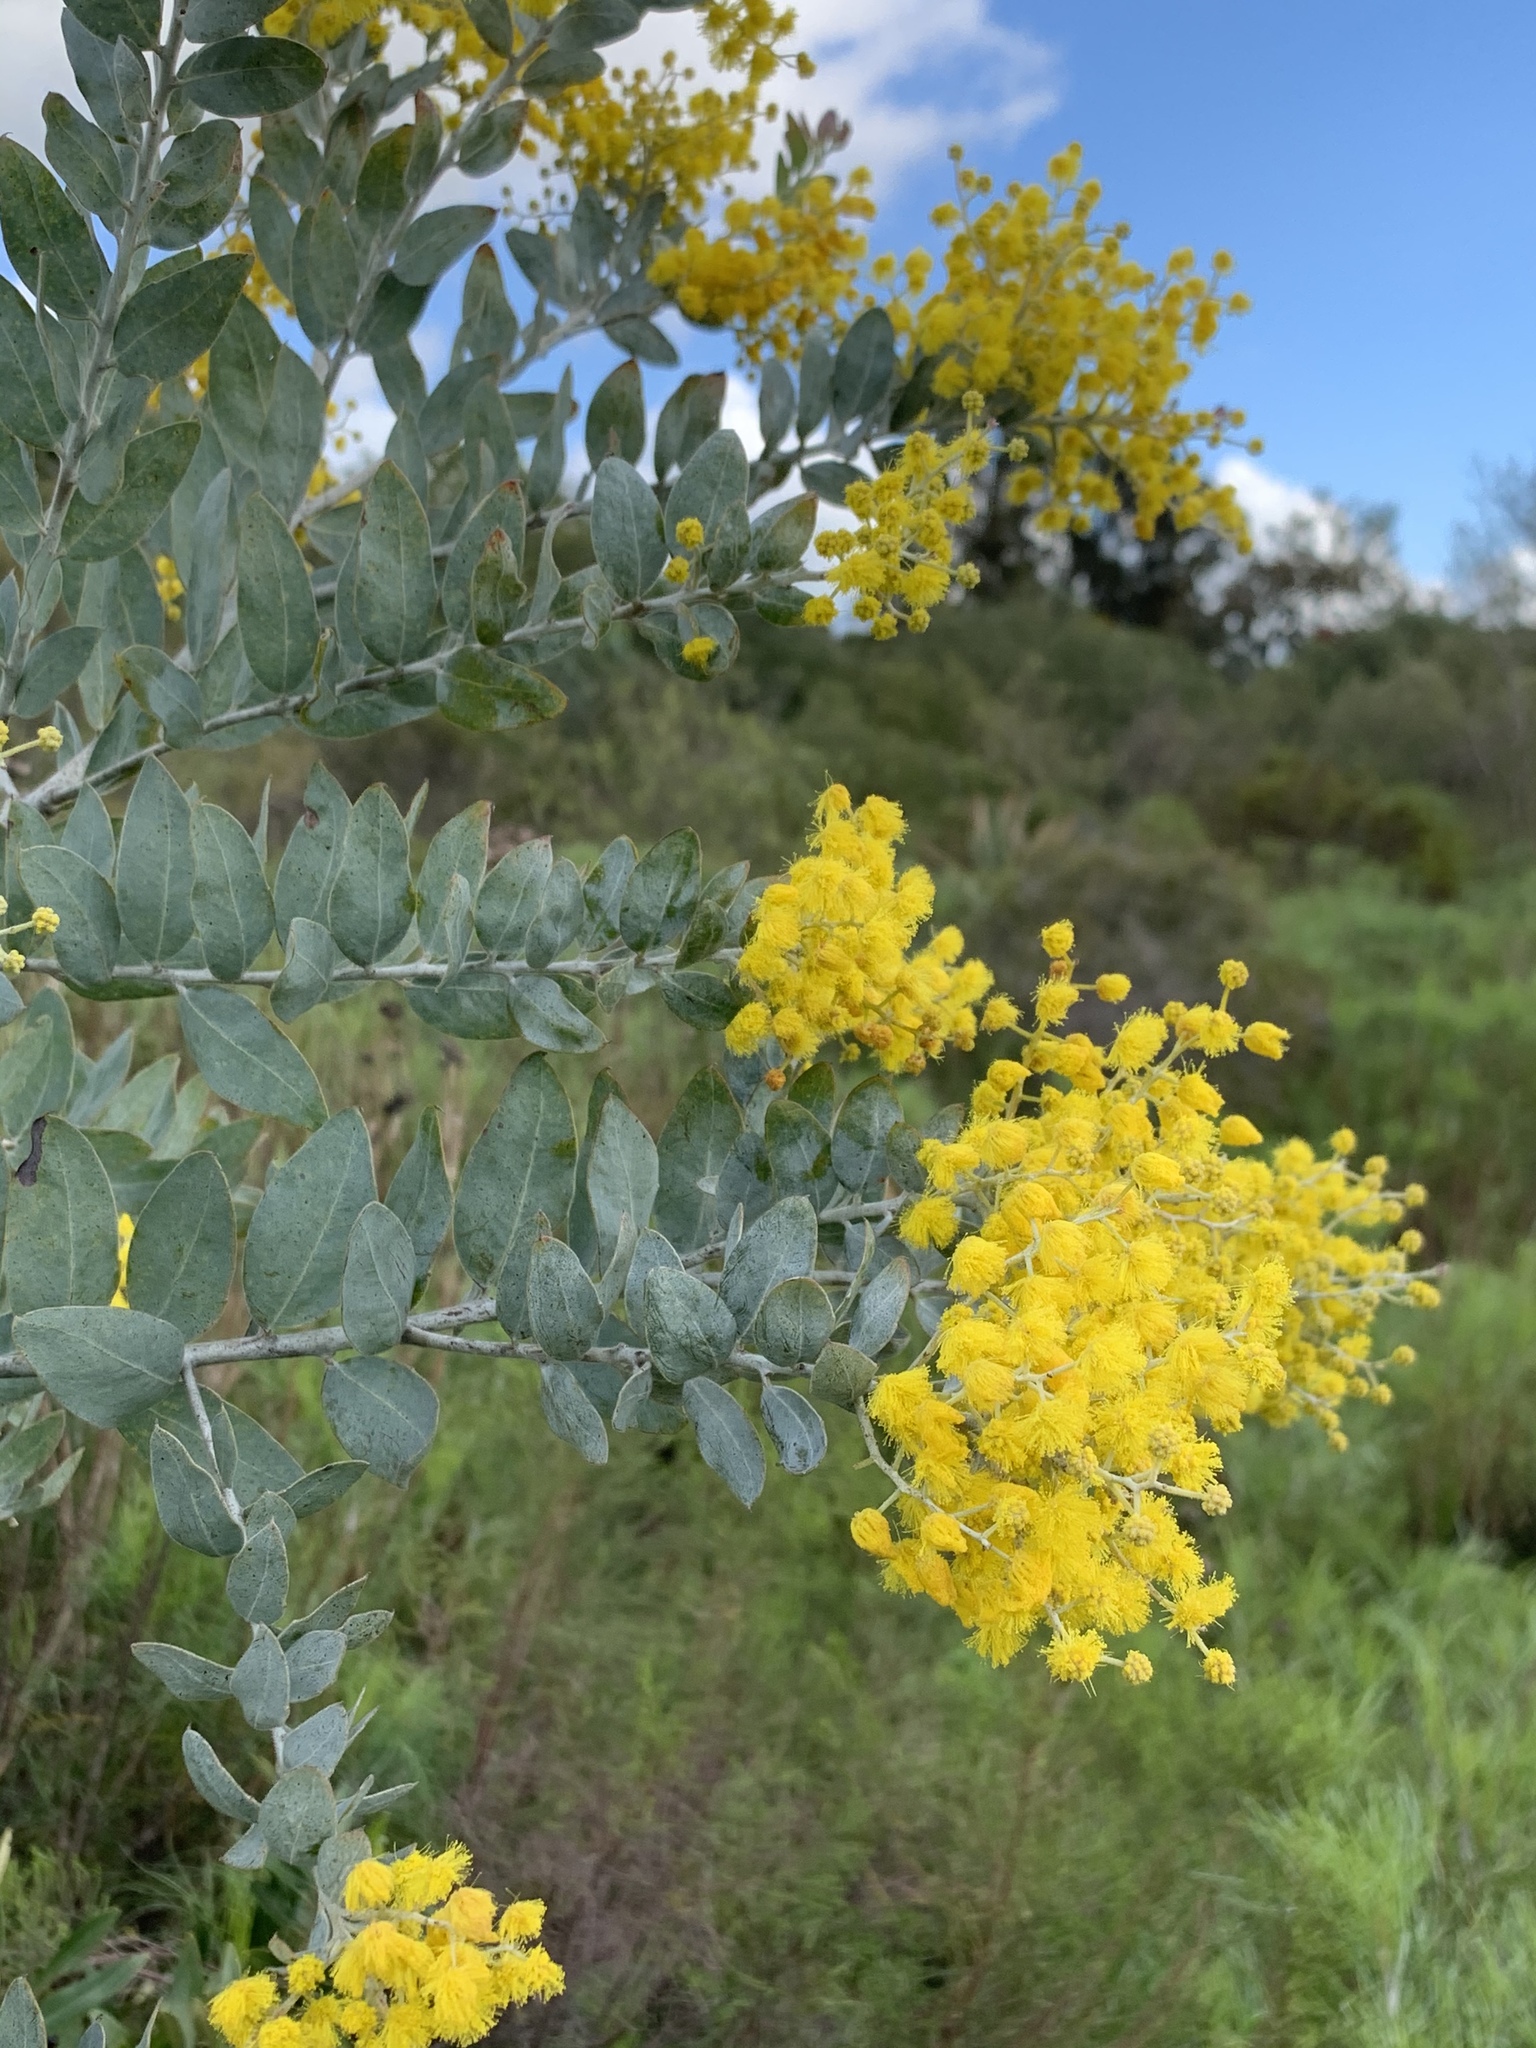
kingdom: Plantae
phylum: Tracheophyta
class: Magnoliopsida
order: Fabales
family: Fabaceae
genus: Acacia
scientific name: Acacia podalyriifolia
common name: Pearl wattle
